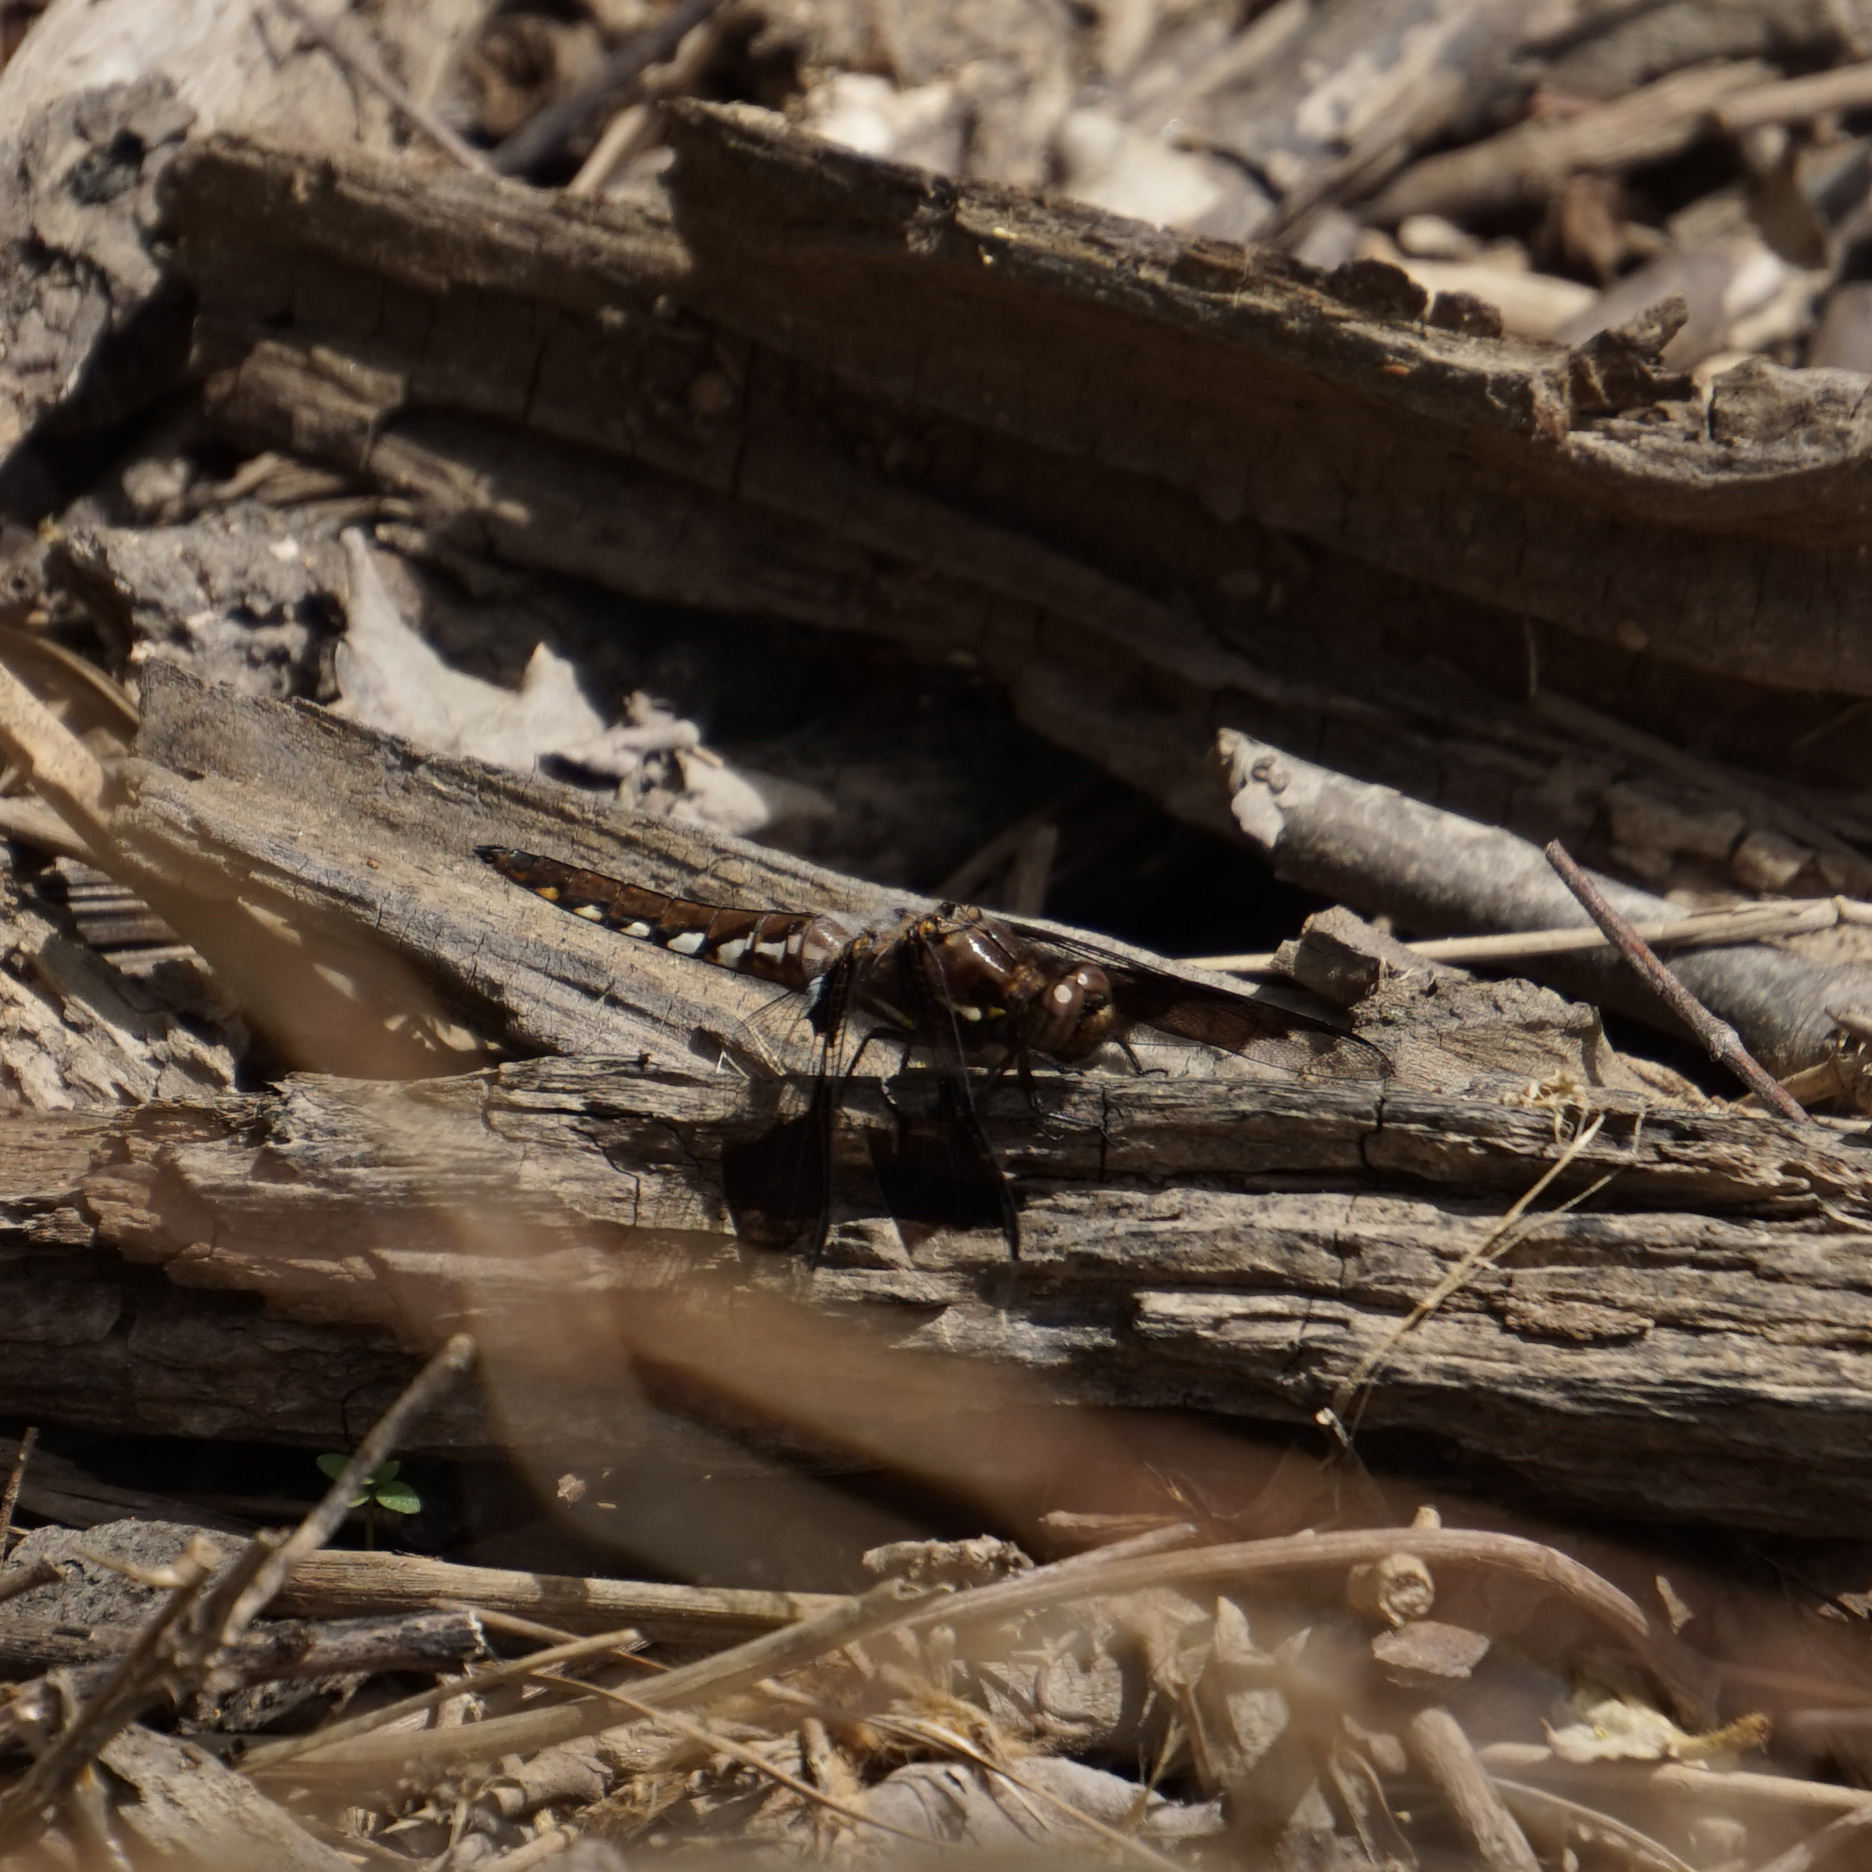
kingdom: Animalia
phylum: Arthropoda
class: Insecta
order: Odonata
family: Libellulidae
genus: Plathemis
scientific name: Plathemis lydia
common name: Common whitetail
